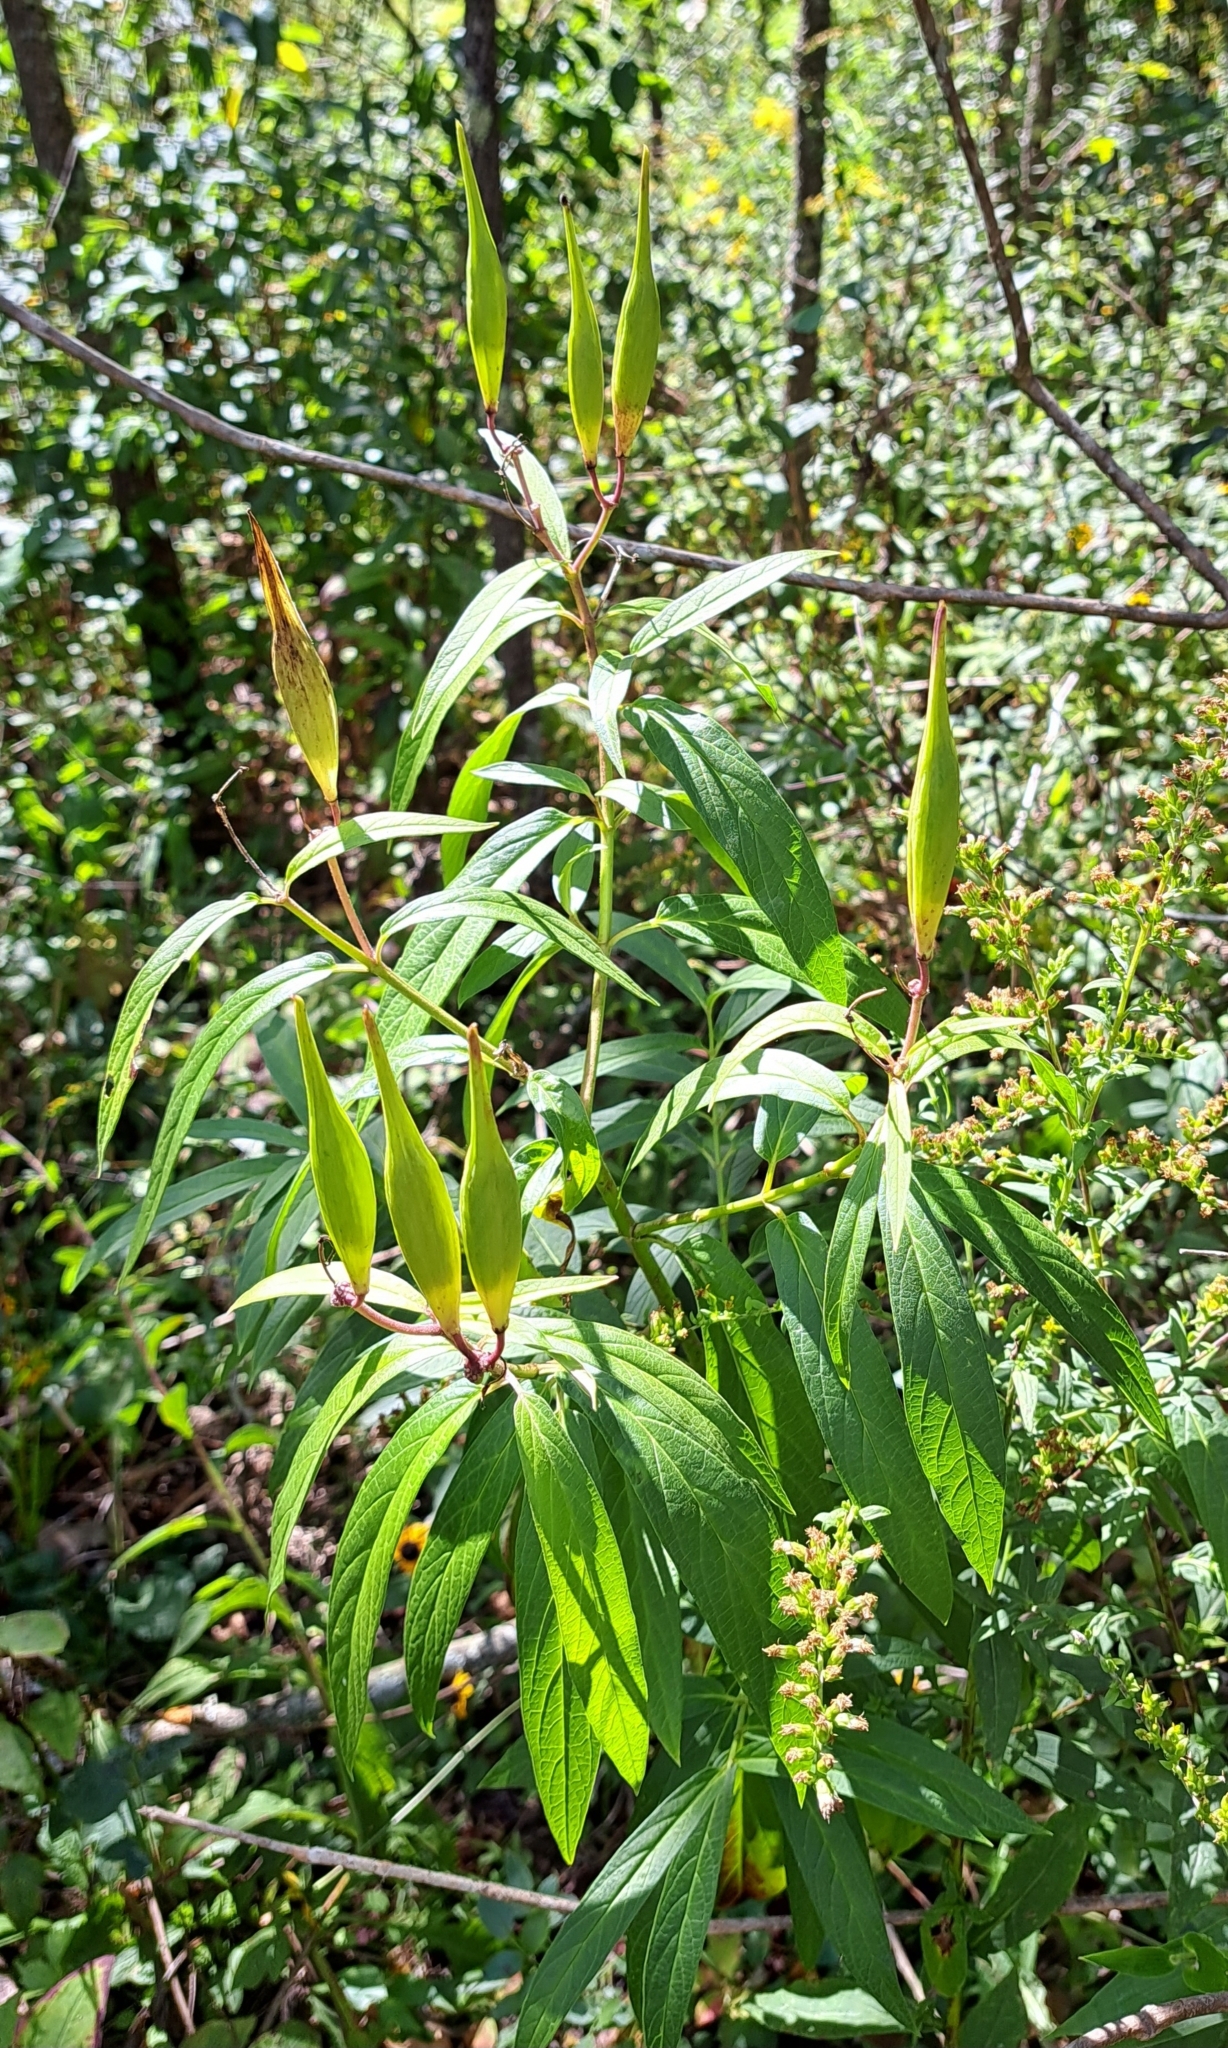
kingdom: Plantae
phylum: Tracheophyta
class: Magnoliopsida
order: Gentianales
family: Apocynaceae
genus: Asclepias
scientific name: Asclepias incarnata
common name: Swamp milkweed
